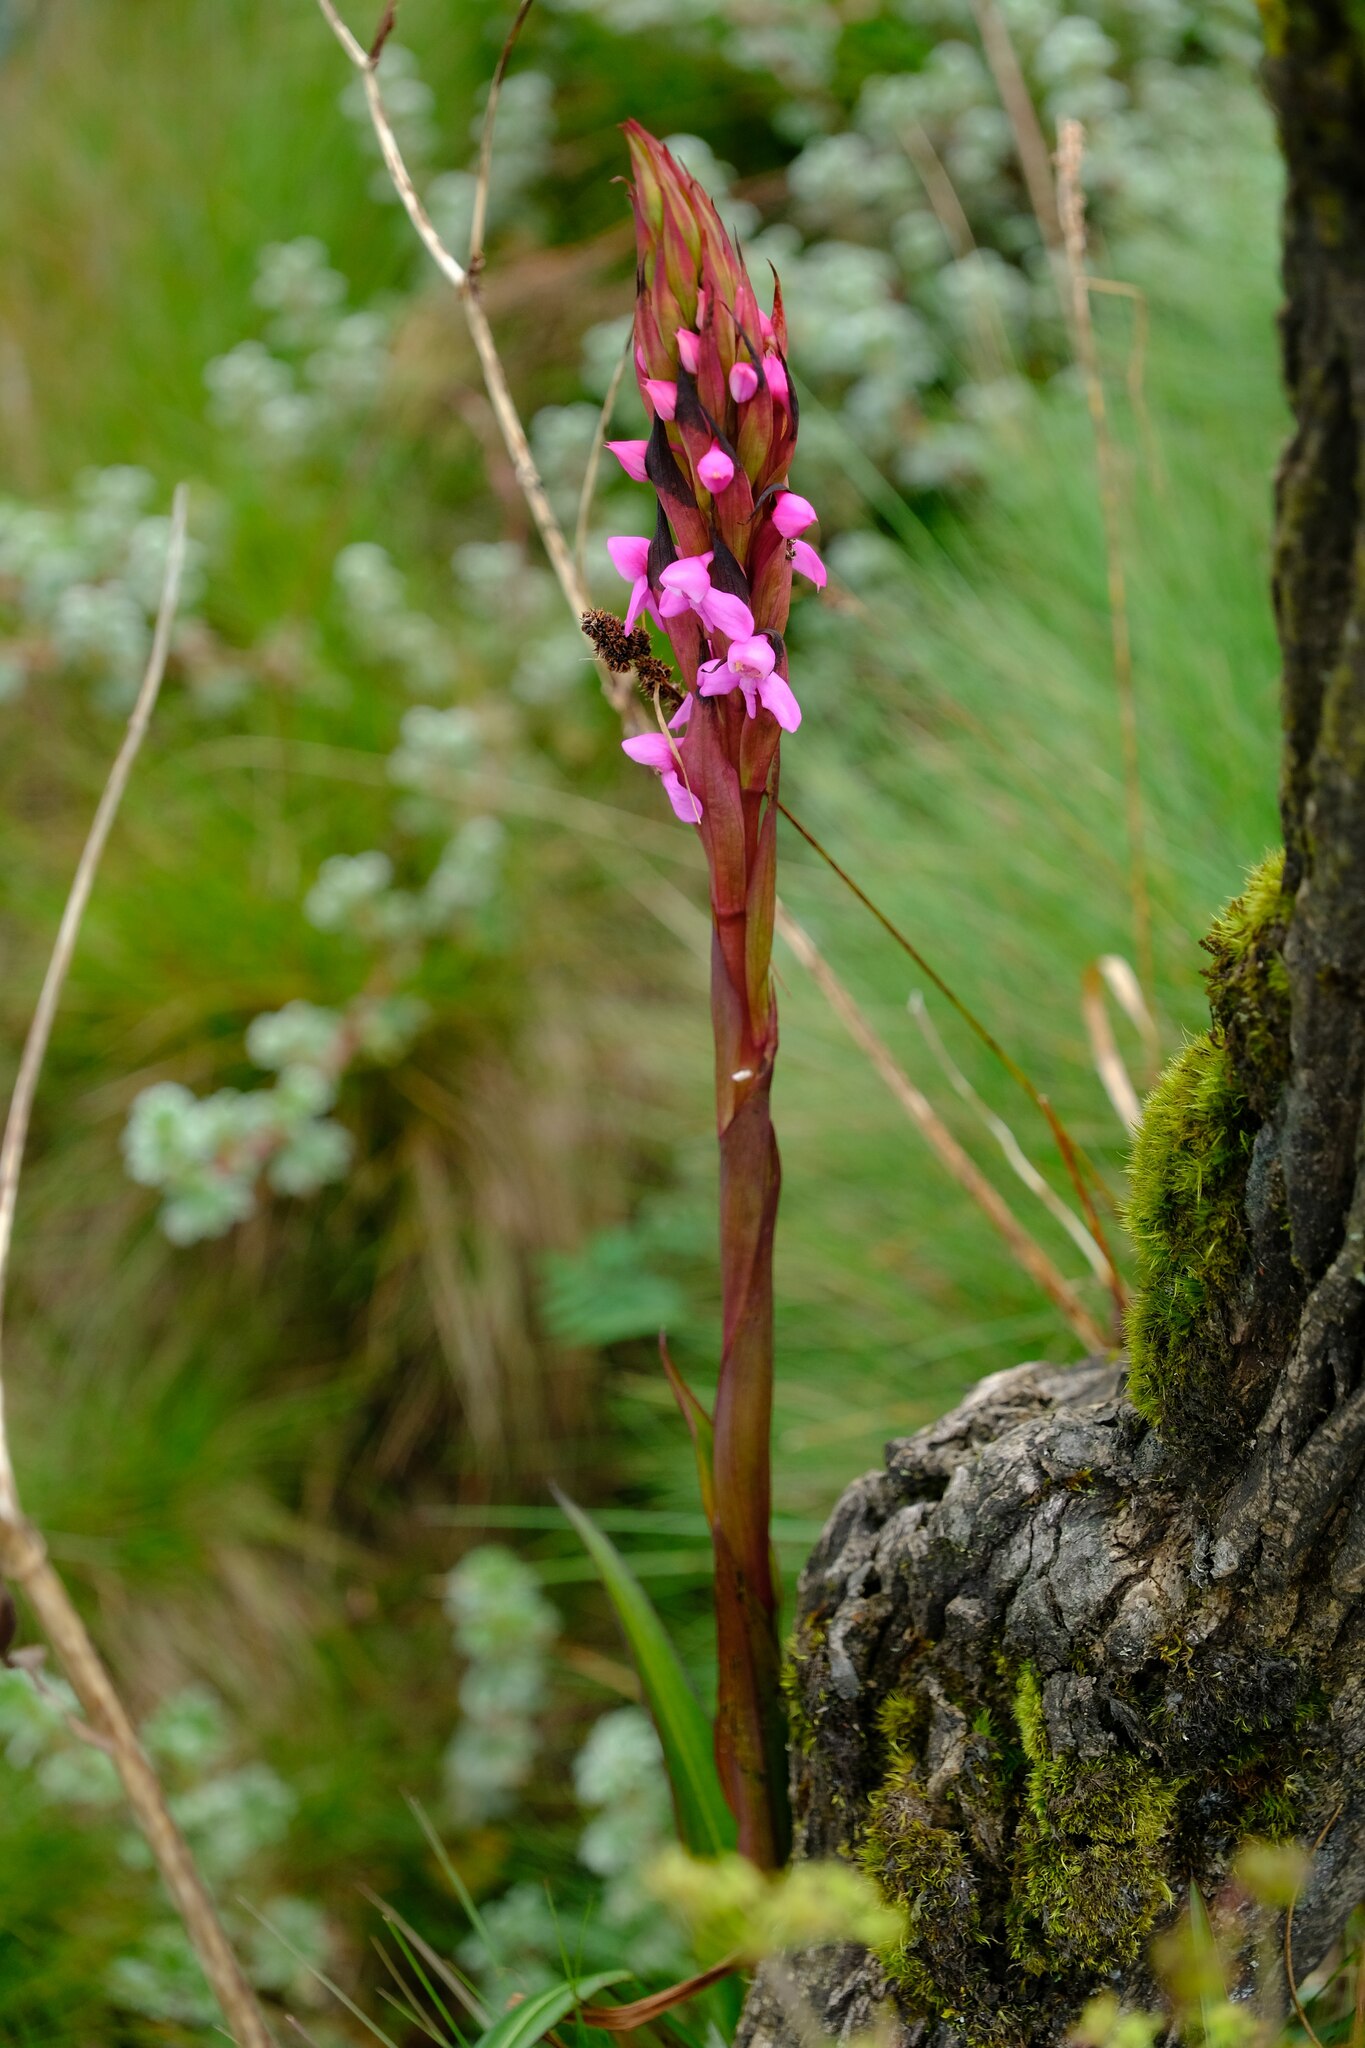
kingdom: Plantae
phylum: Tracheophyta
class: Liliopsida
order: Asparagales
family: Orchidaceae
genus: Disa
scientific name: Disa stairsii
